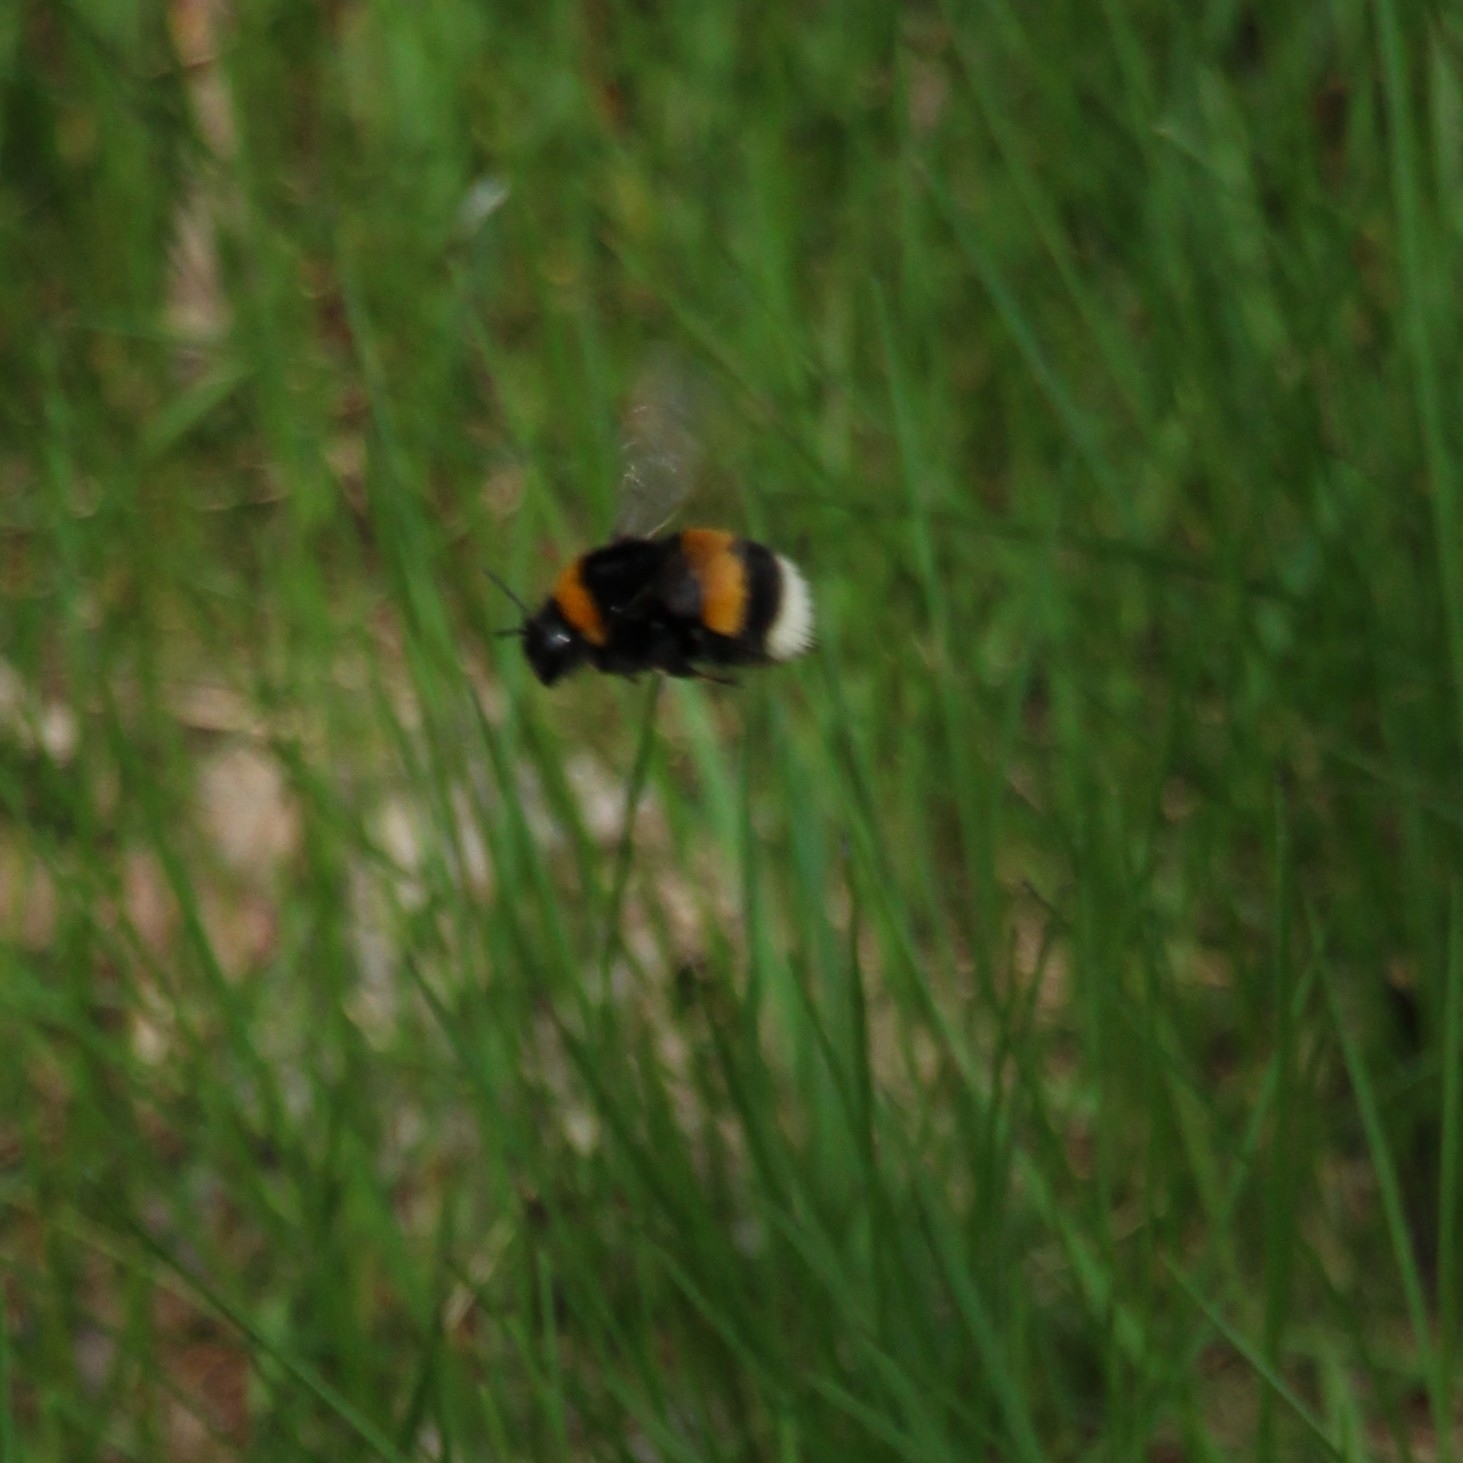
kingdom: Animalia
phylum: Arthropoda
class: Insecta
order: Hymenoptera
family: Apidae
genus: Bombus
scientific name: Bombus
